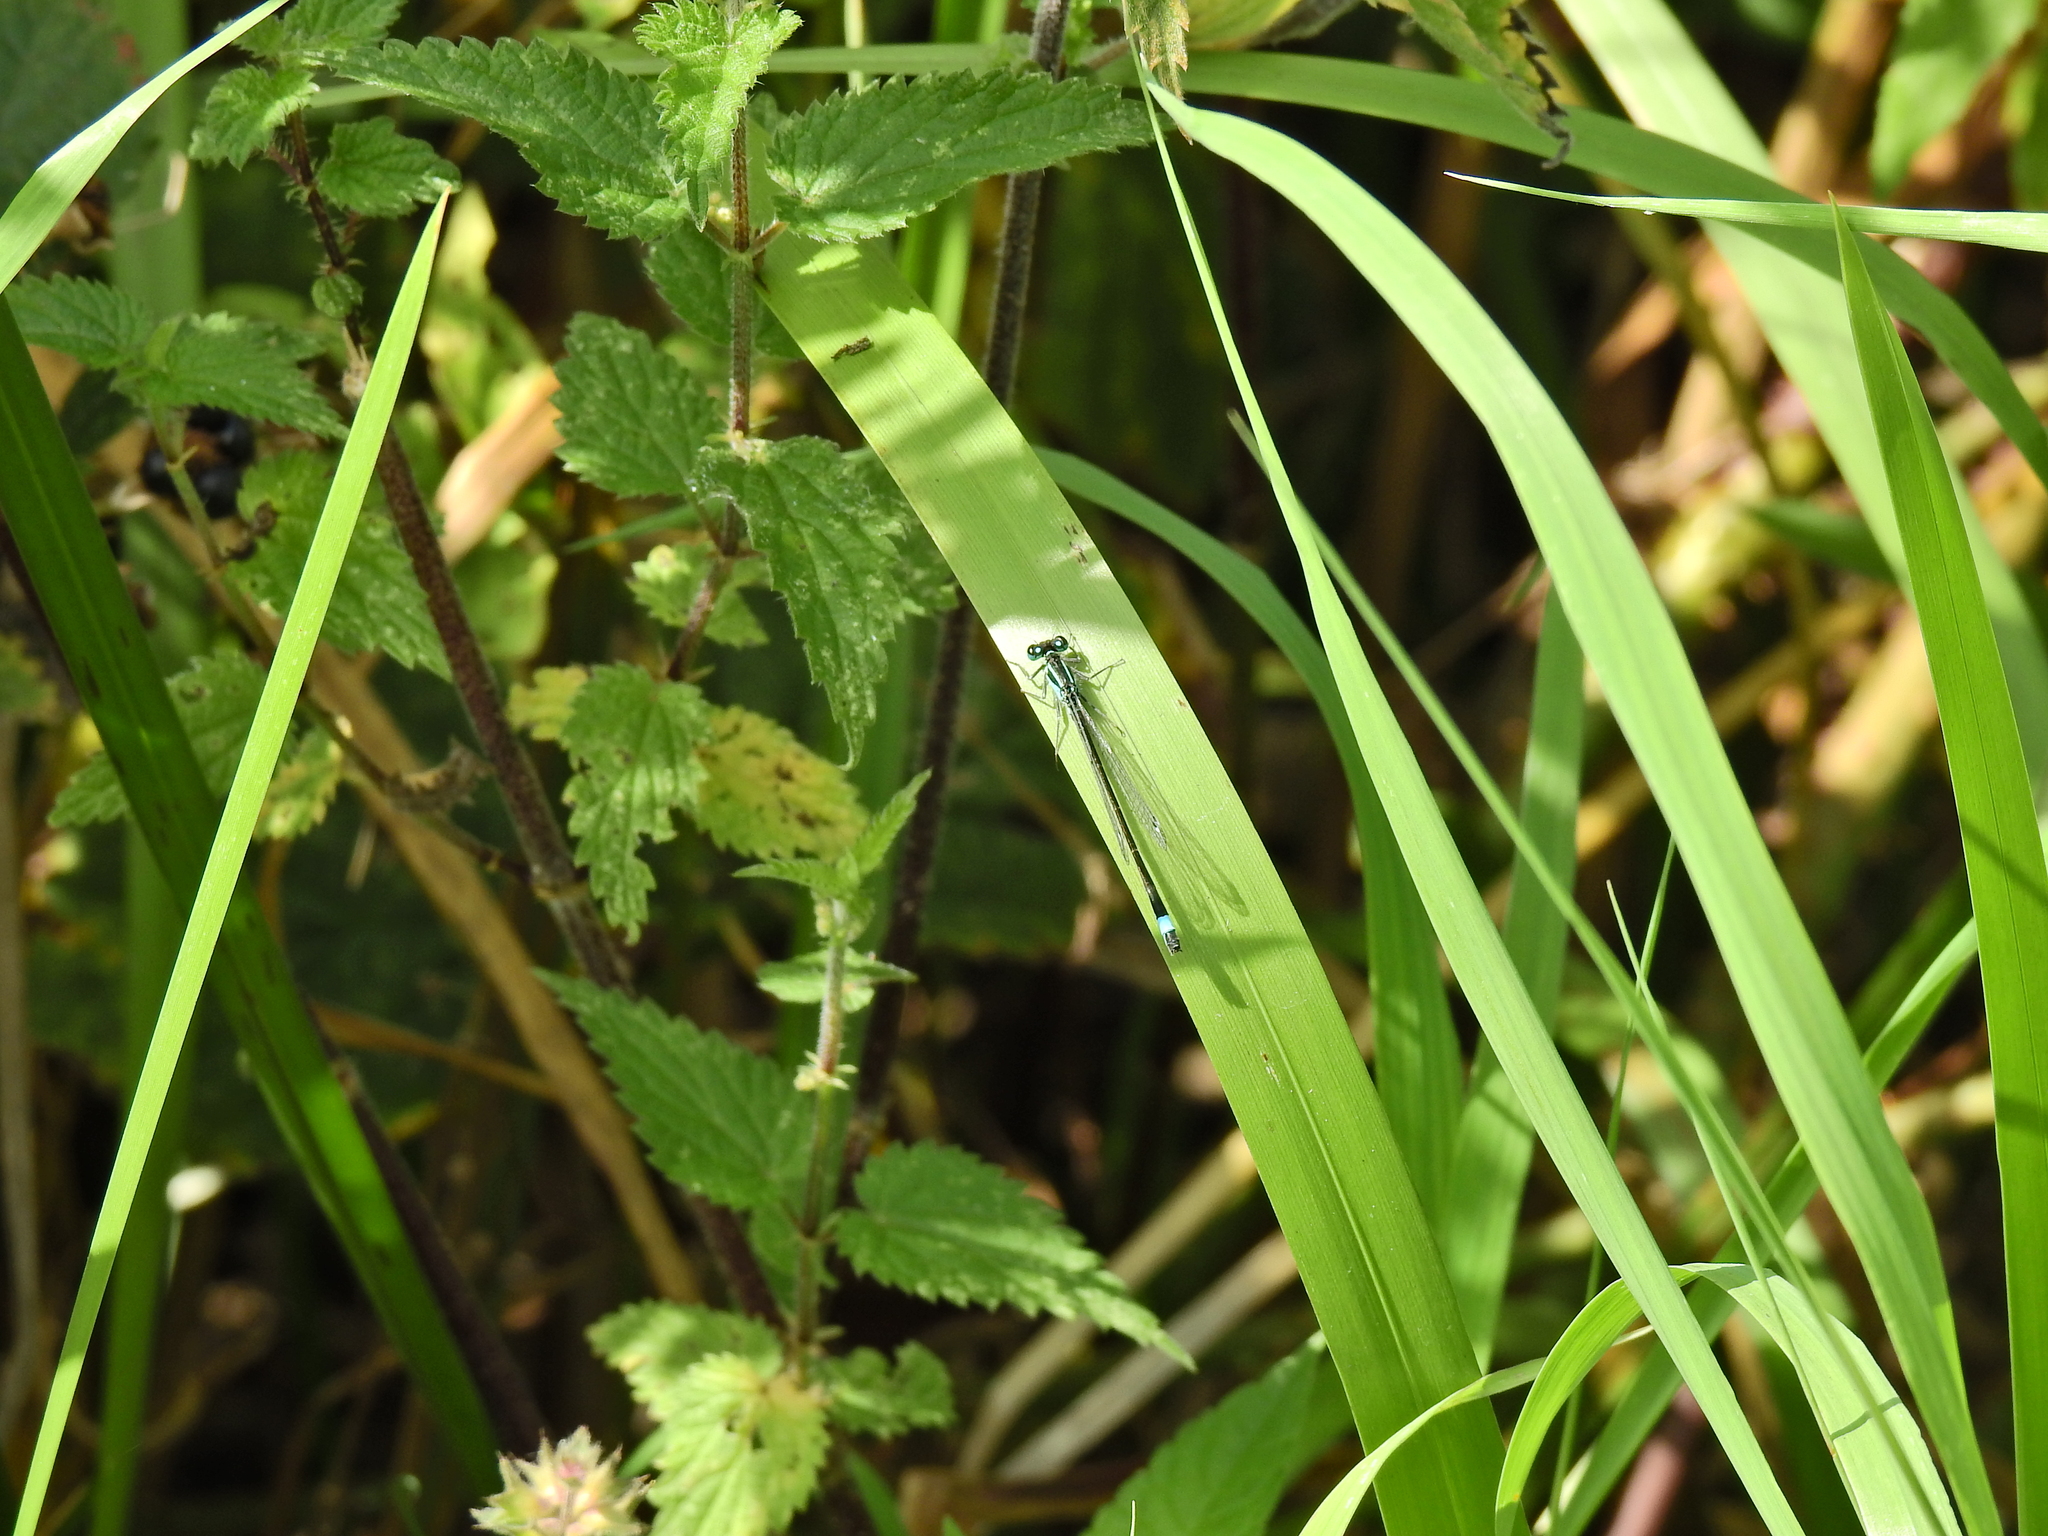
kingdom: Animalia
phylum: Arthropoda
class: Insecta
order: Odonata
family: Coenagrionidae
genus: Ischnura
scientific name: Ischnura elegans
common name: Blue-tailed damselfly
